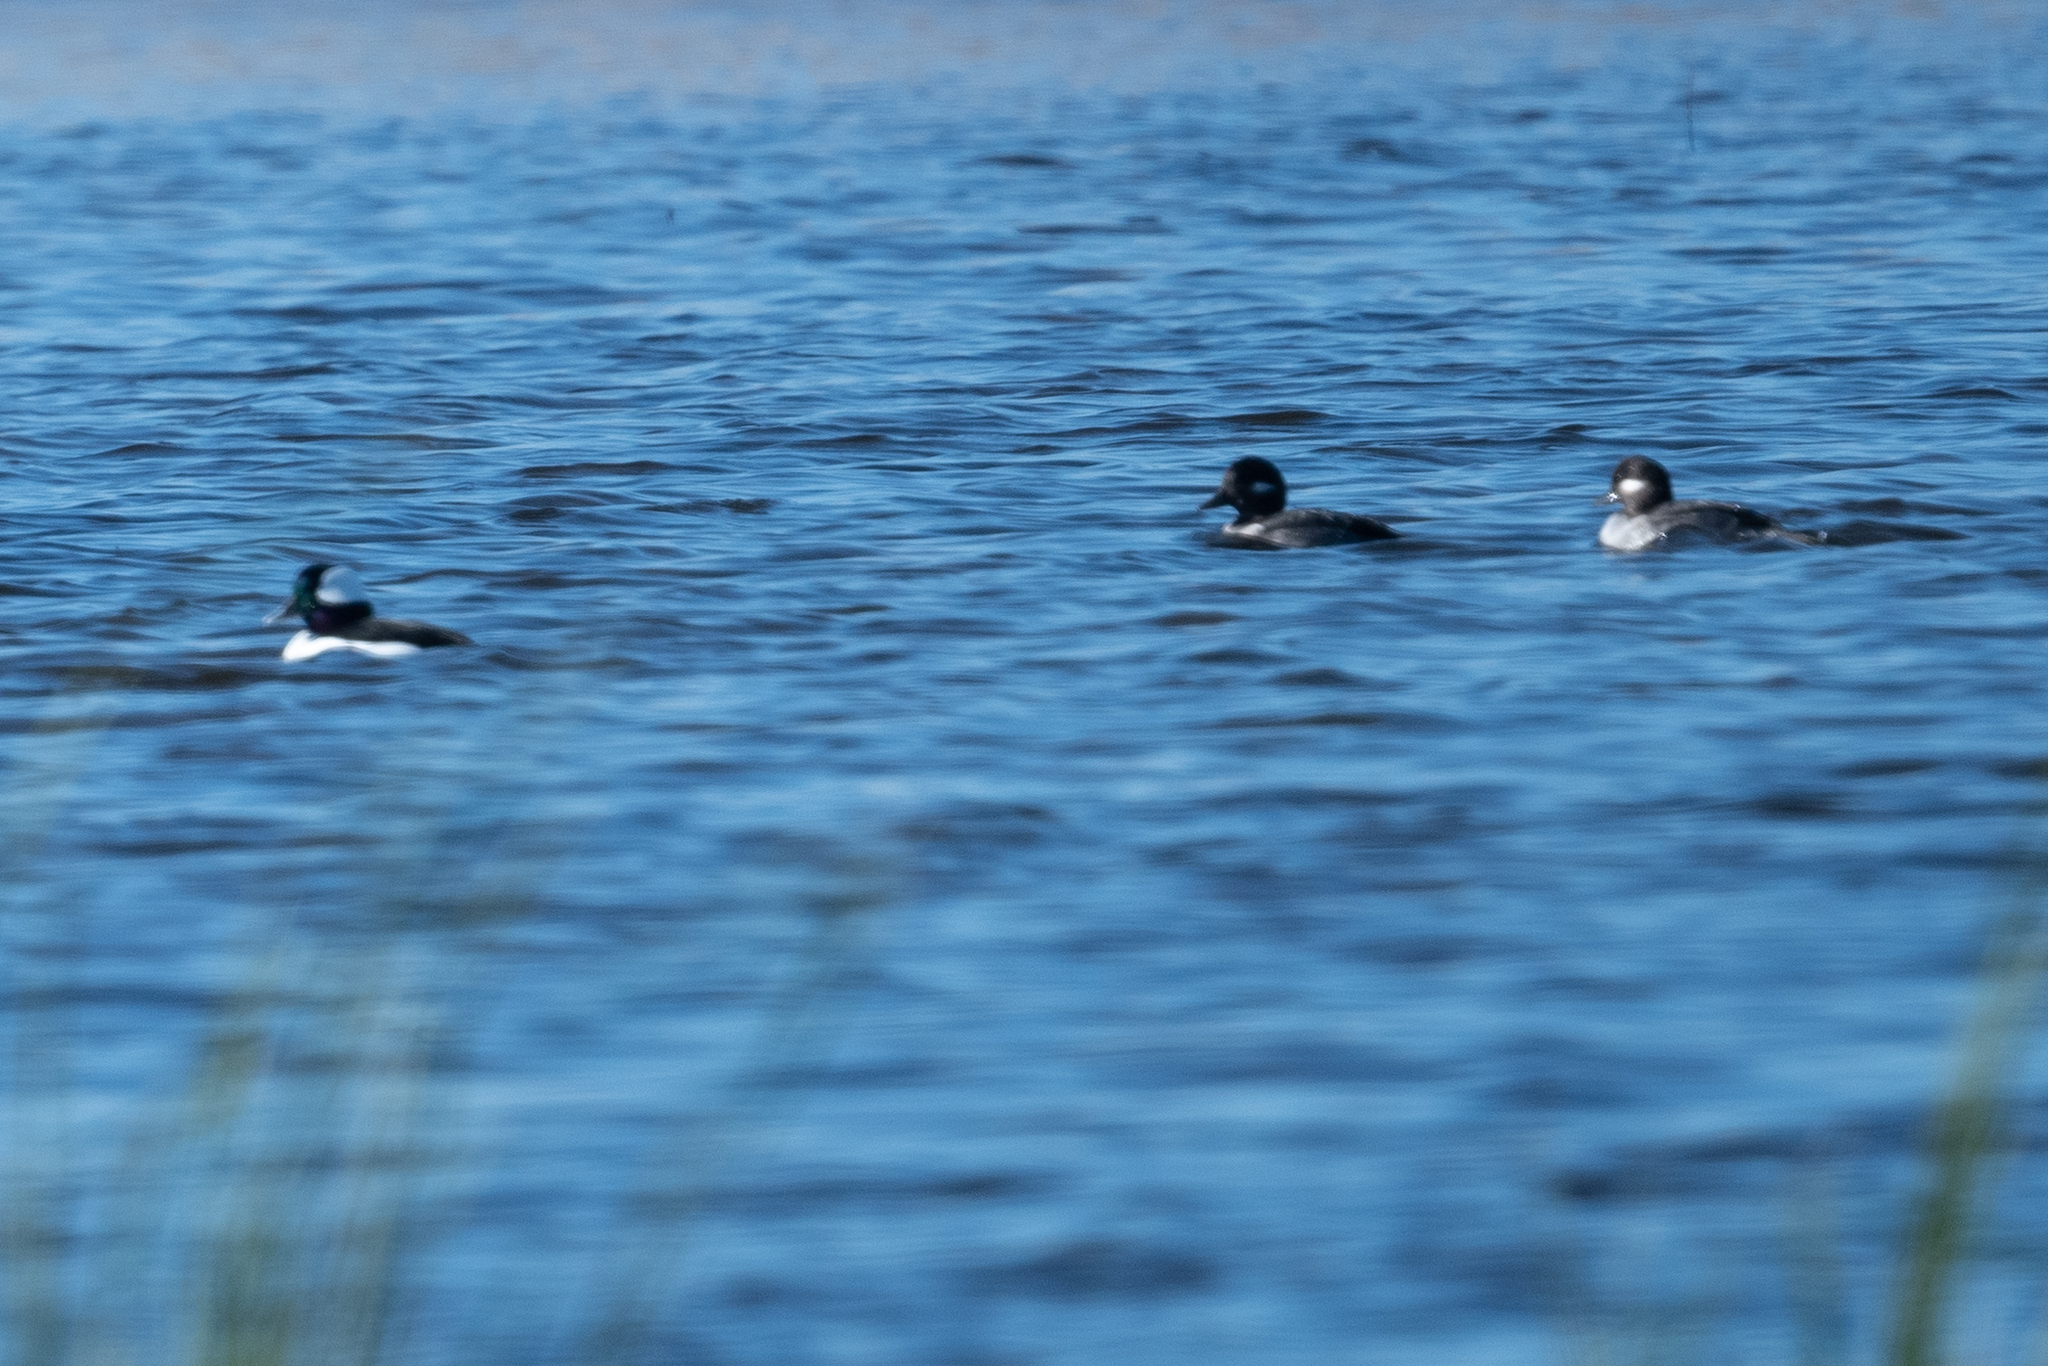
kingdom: Animalia
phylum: Chordata
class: Aves
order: Anseriformes
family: Anatidae
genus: Bucephala
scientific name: Bucephala albeola
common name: Bufflehead
